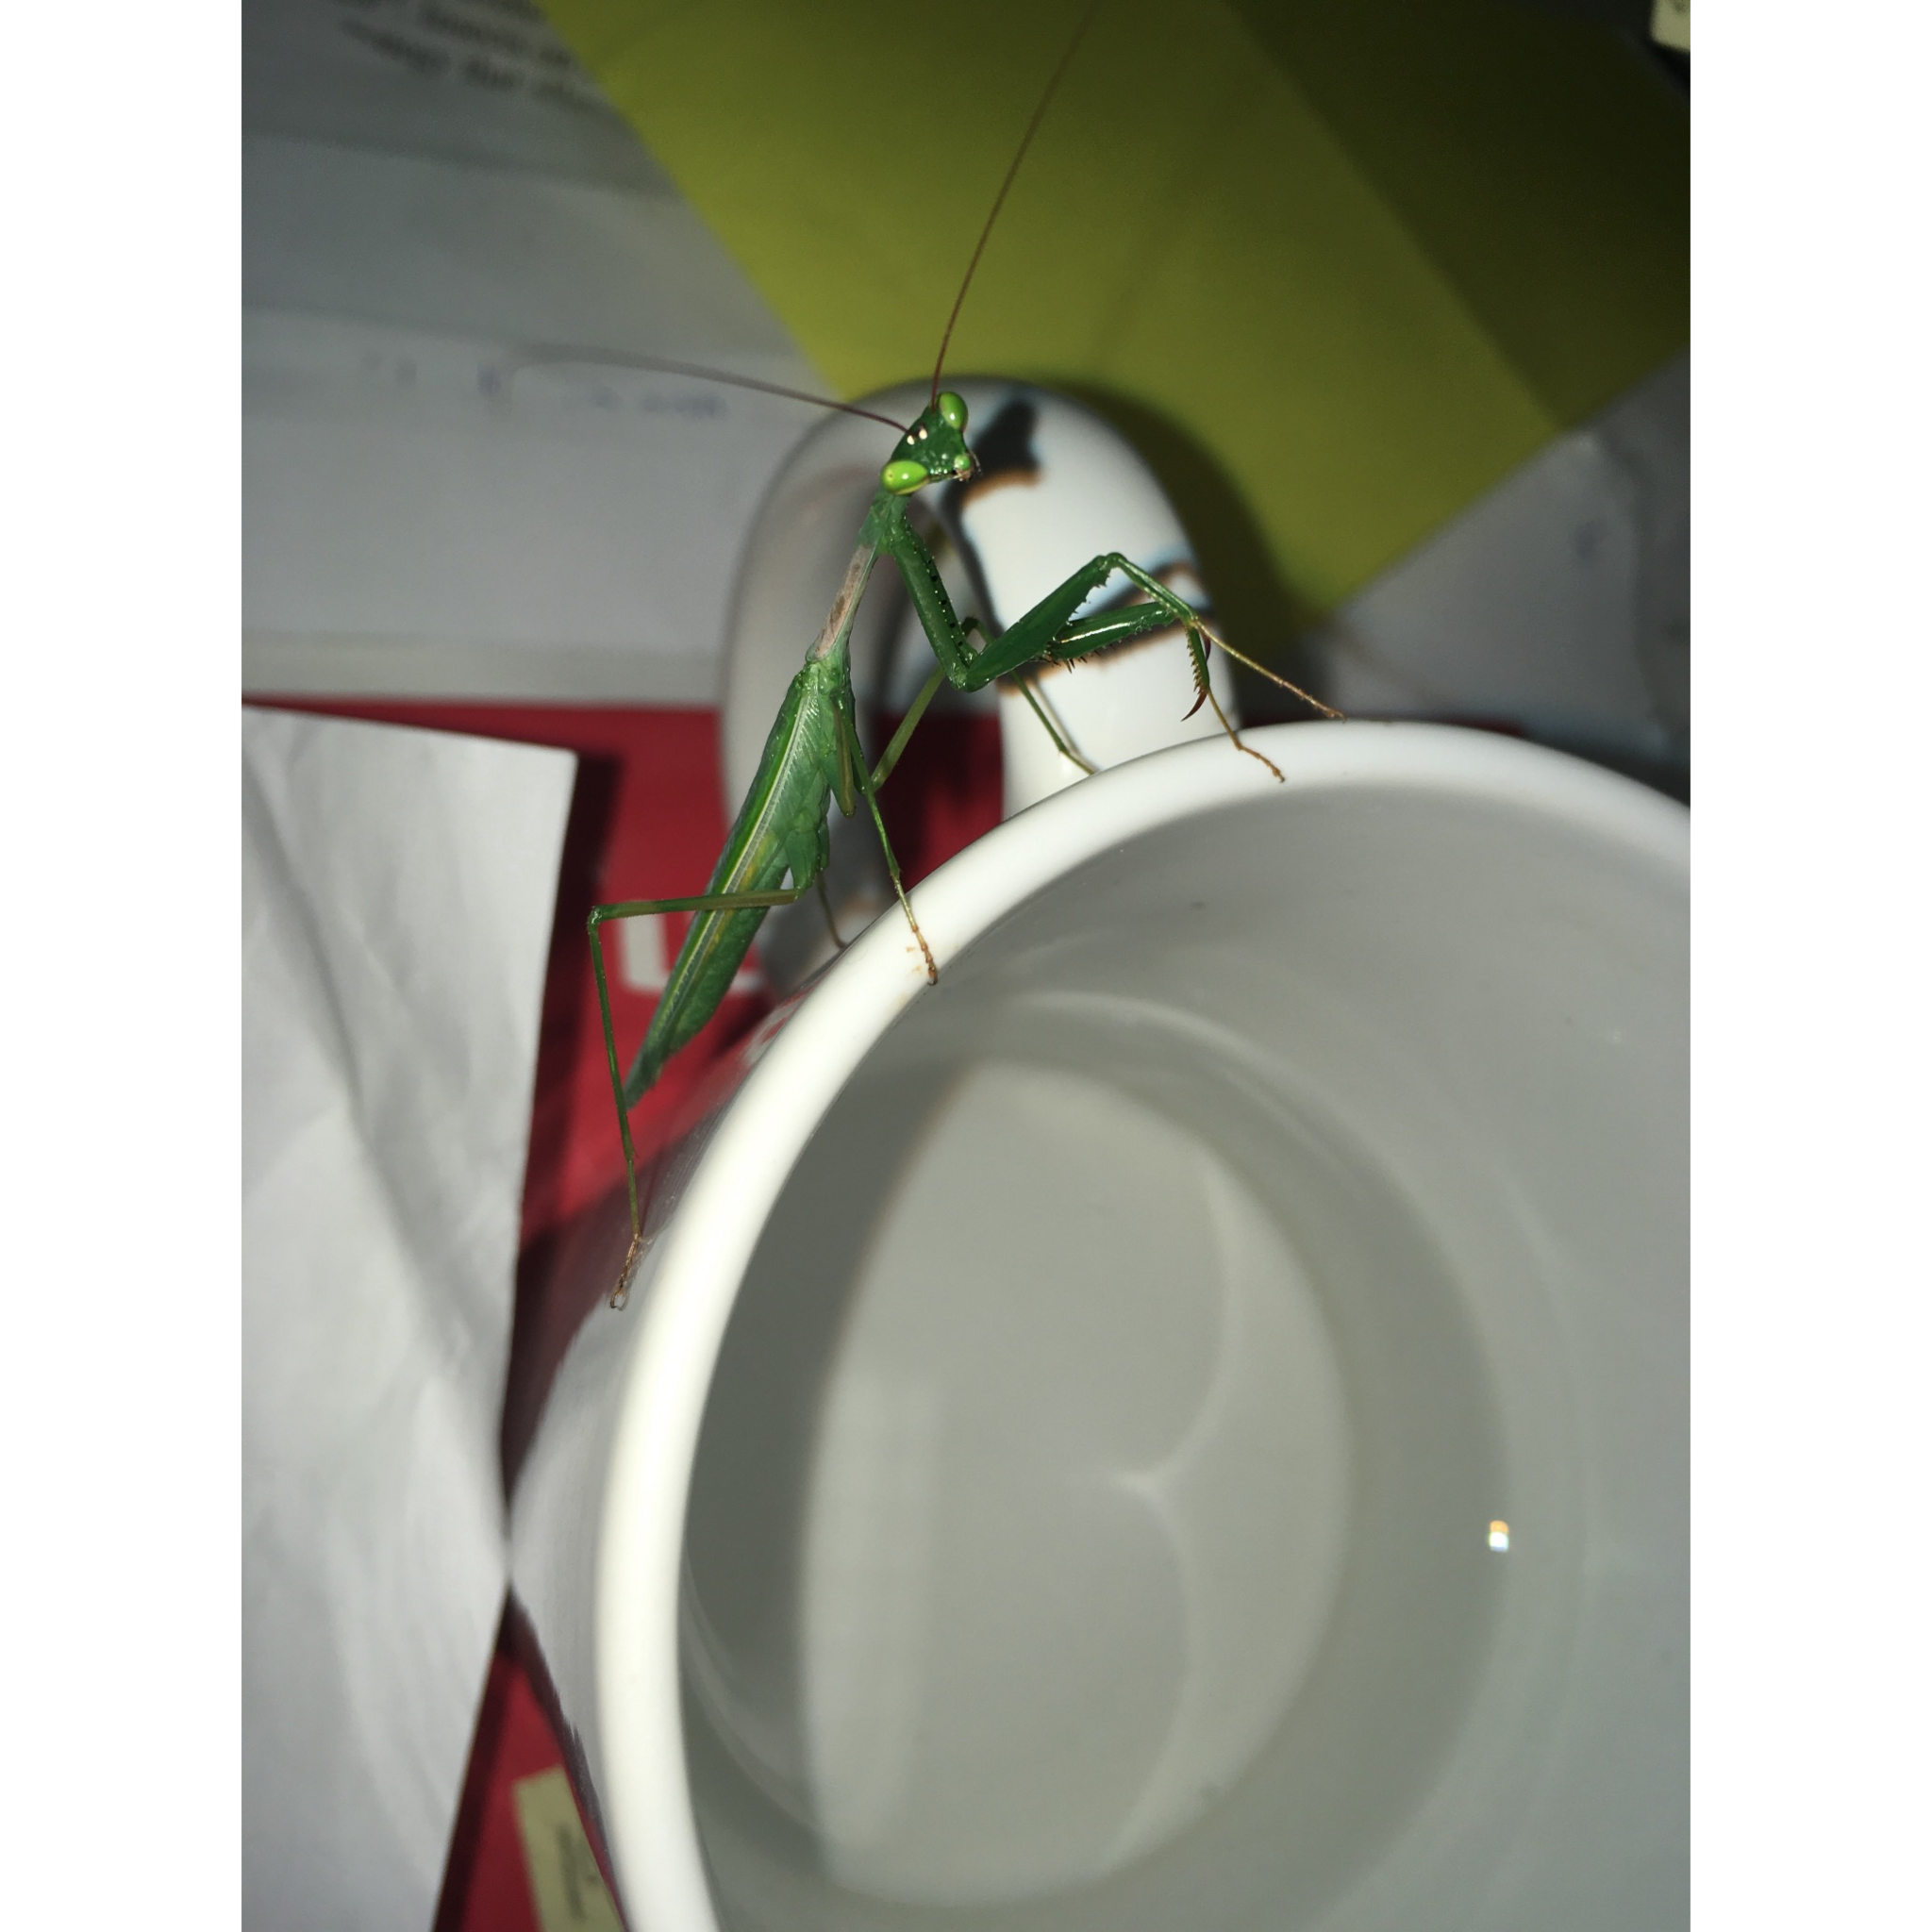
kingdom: Animalia
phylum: Arthropoda
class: Insecta
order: Mantodea
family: Miomantidae
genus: Miomantis
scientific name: Miomantis caffra
